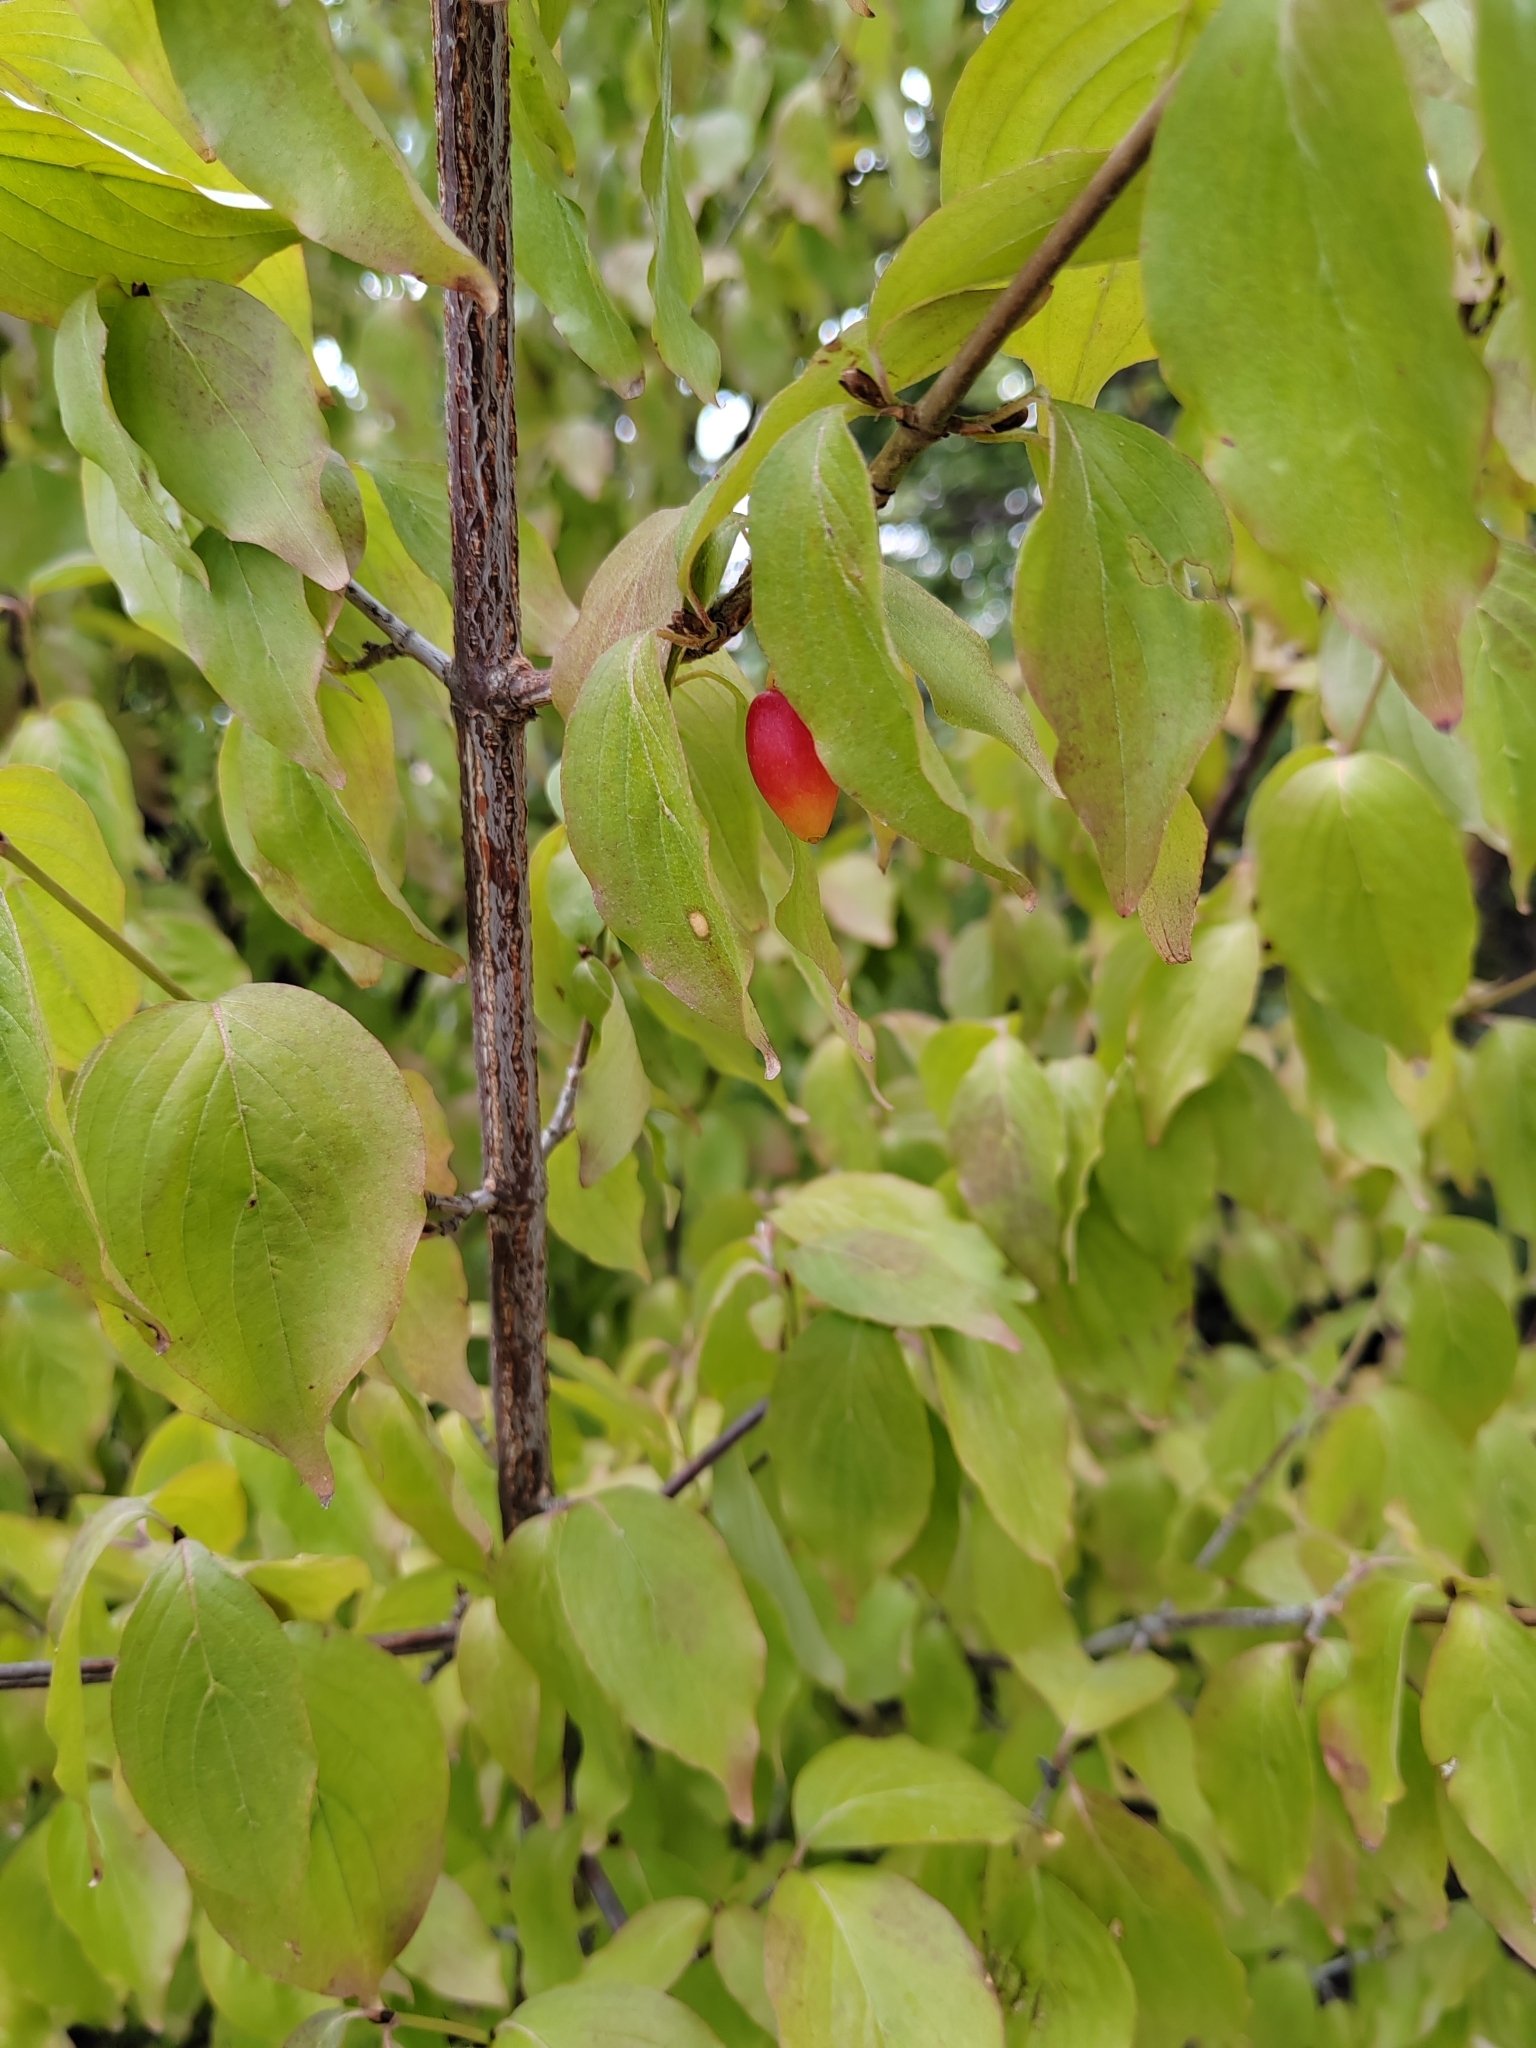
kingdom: Plantae
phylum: Tracheophyta
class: Magnoliopsida
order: Cornales
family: Cornaceae
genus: Cornus
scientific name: Cornus mas
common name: Cornelian-cherry
